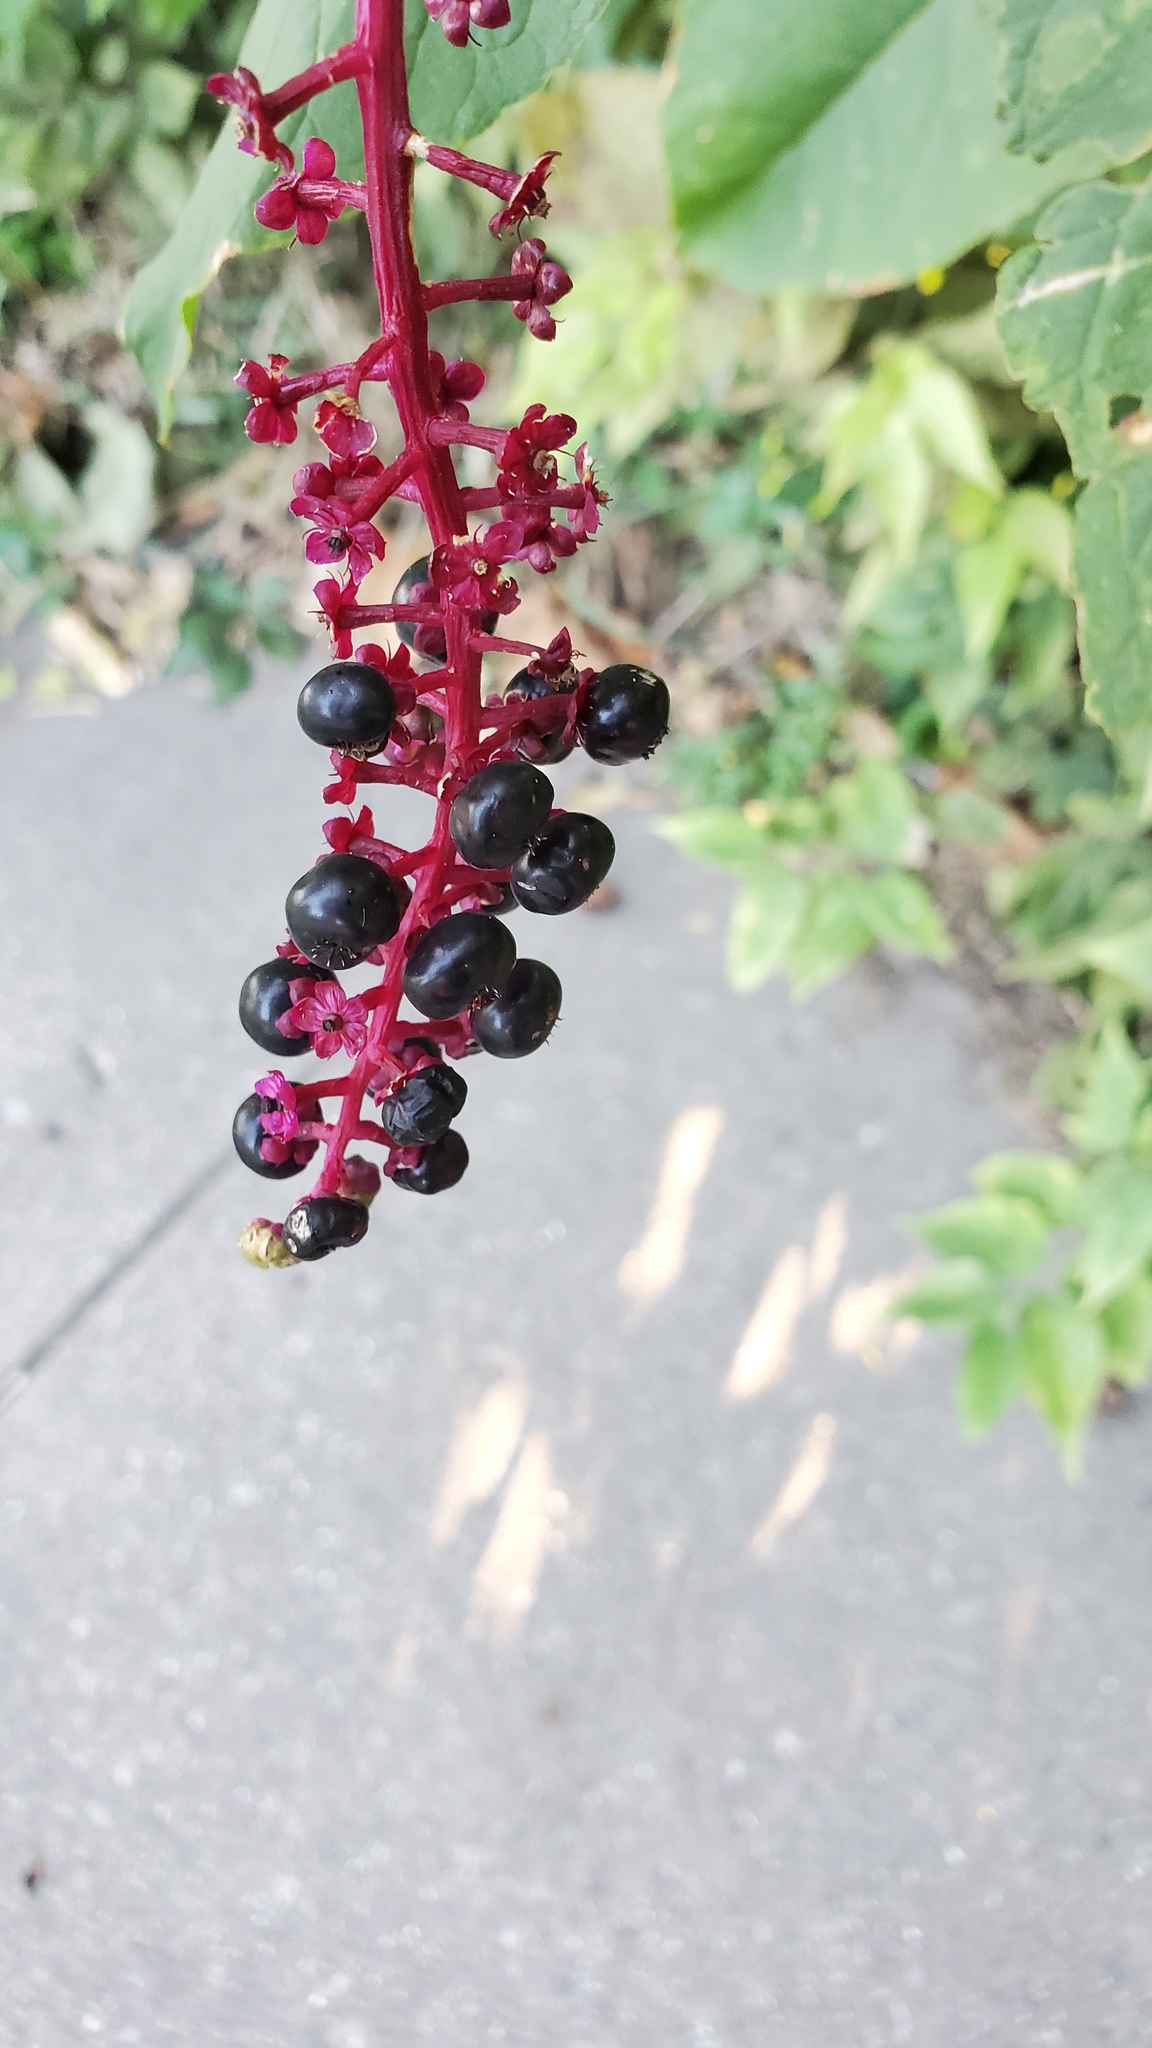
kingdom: Plantae
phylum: Tracheophyta
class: Magnoliopsida
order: Caryophyllales
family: Phytolaccaceae
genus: Phytolacca
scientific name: Phytolacca americana
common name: American pokeweed
